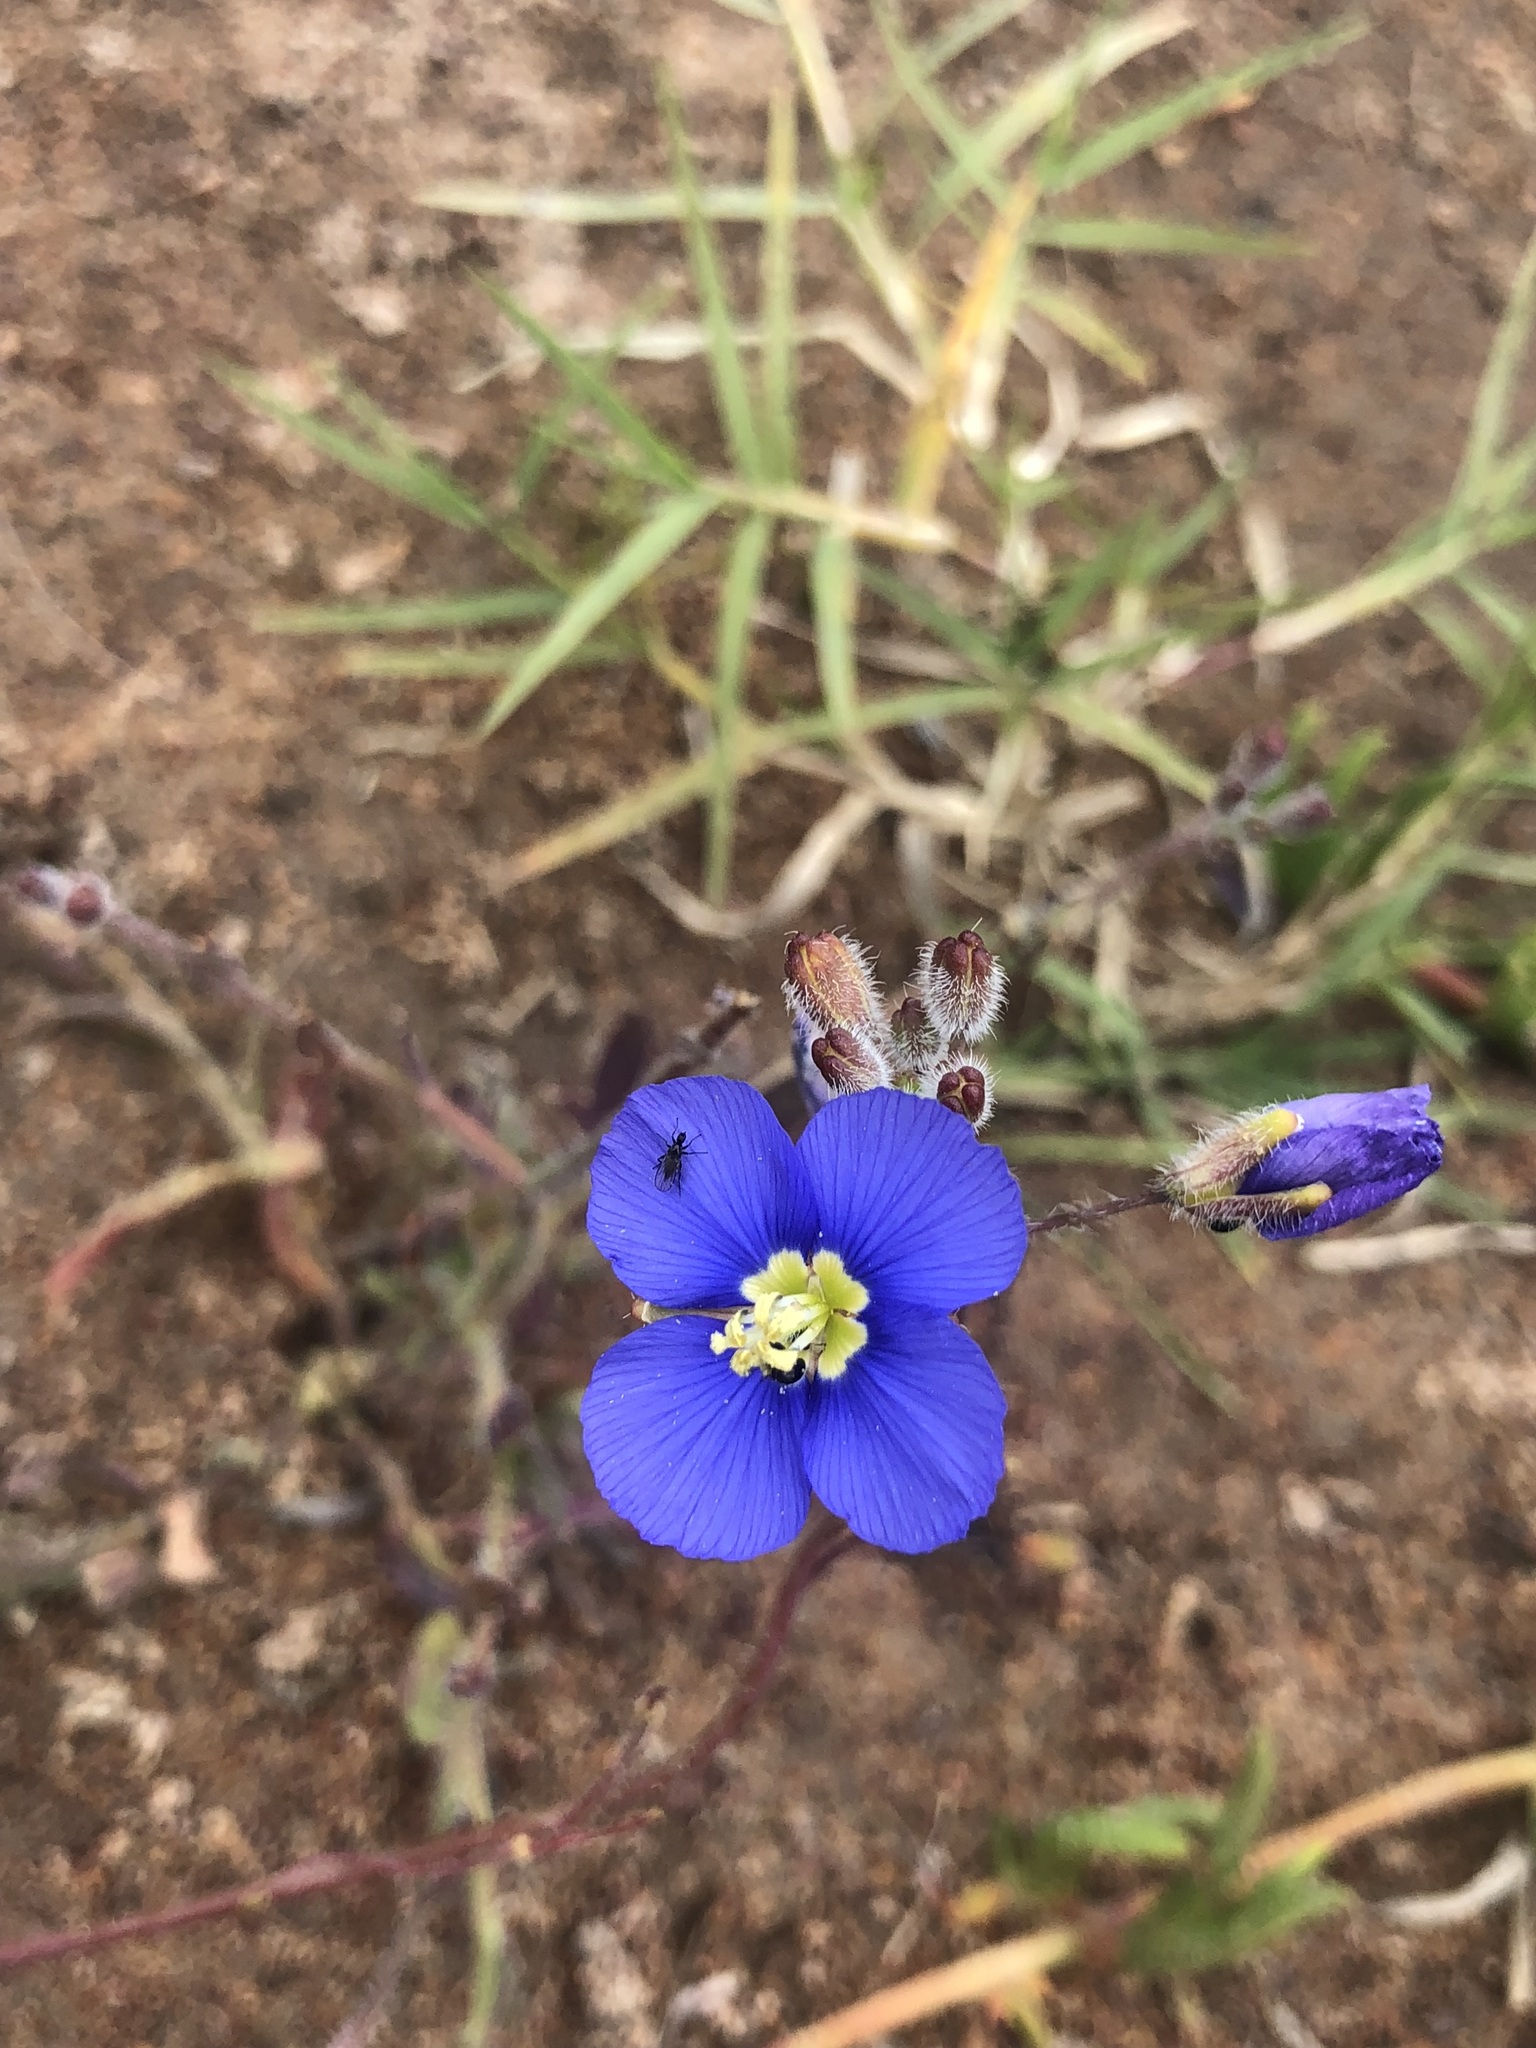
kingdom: Plantae
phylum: Tracheophyta
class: Magnoliopsida
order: Brassicales
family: Brassicaceae
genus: Heliophila
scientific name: Heliophila africana
